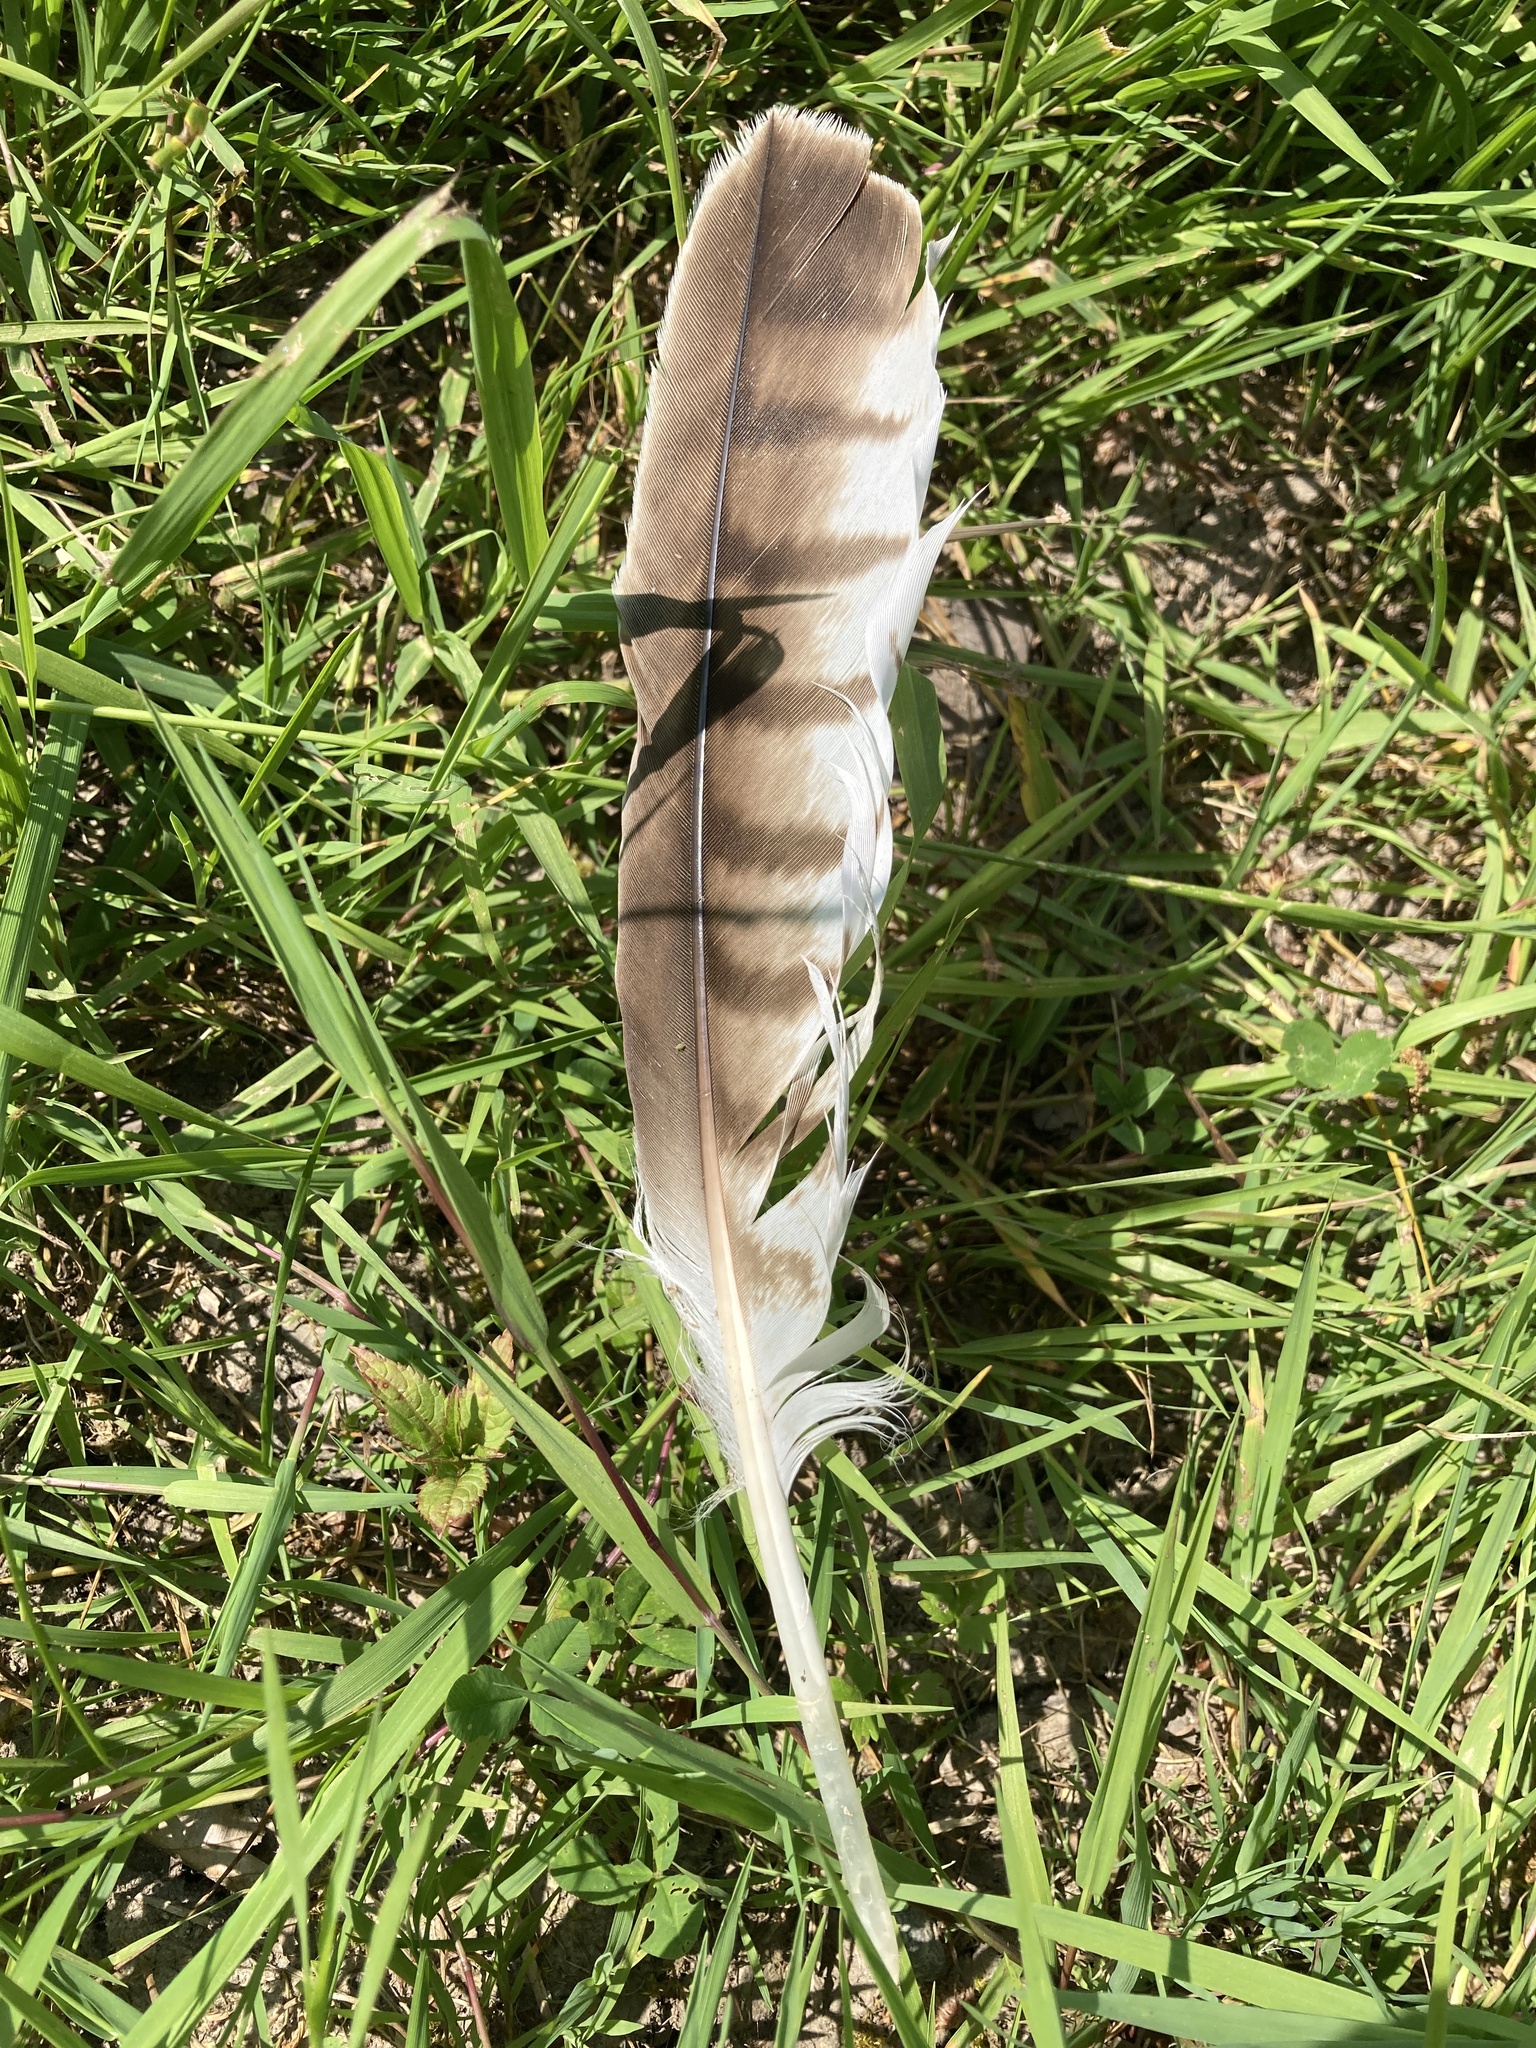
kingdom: Animalia
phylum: Chordata
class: Aves
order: Accipitriformes
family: Accipitridae
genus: Milvus
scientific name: Milvus milvus
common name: Red kite
